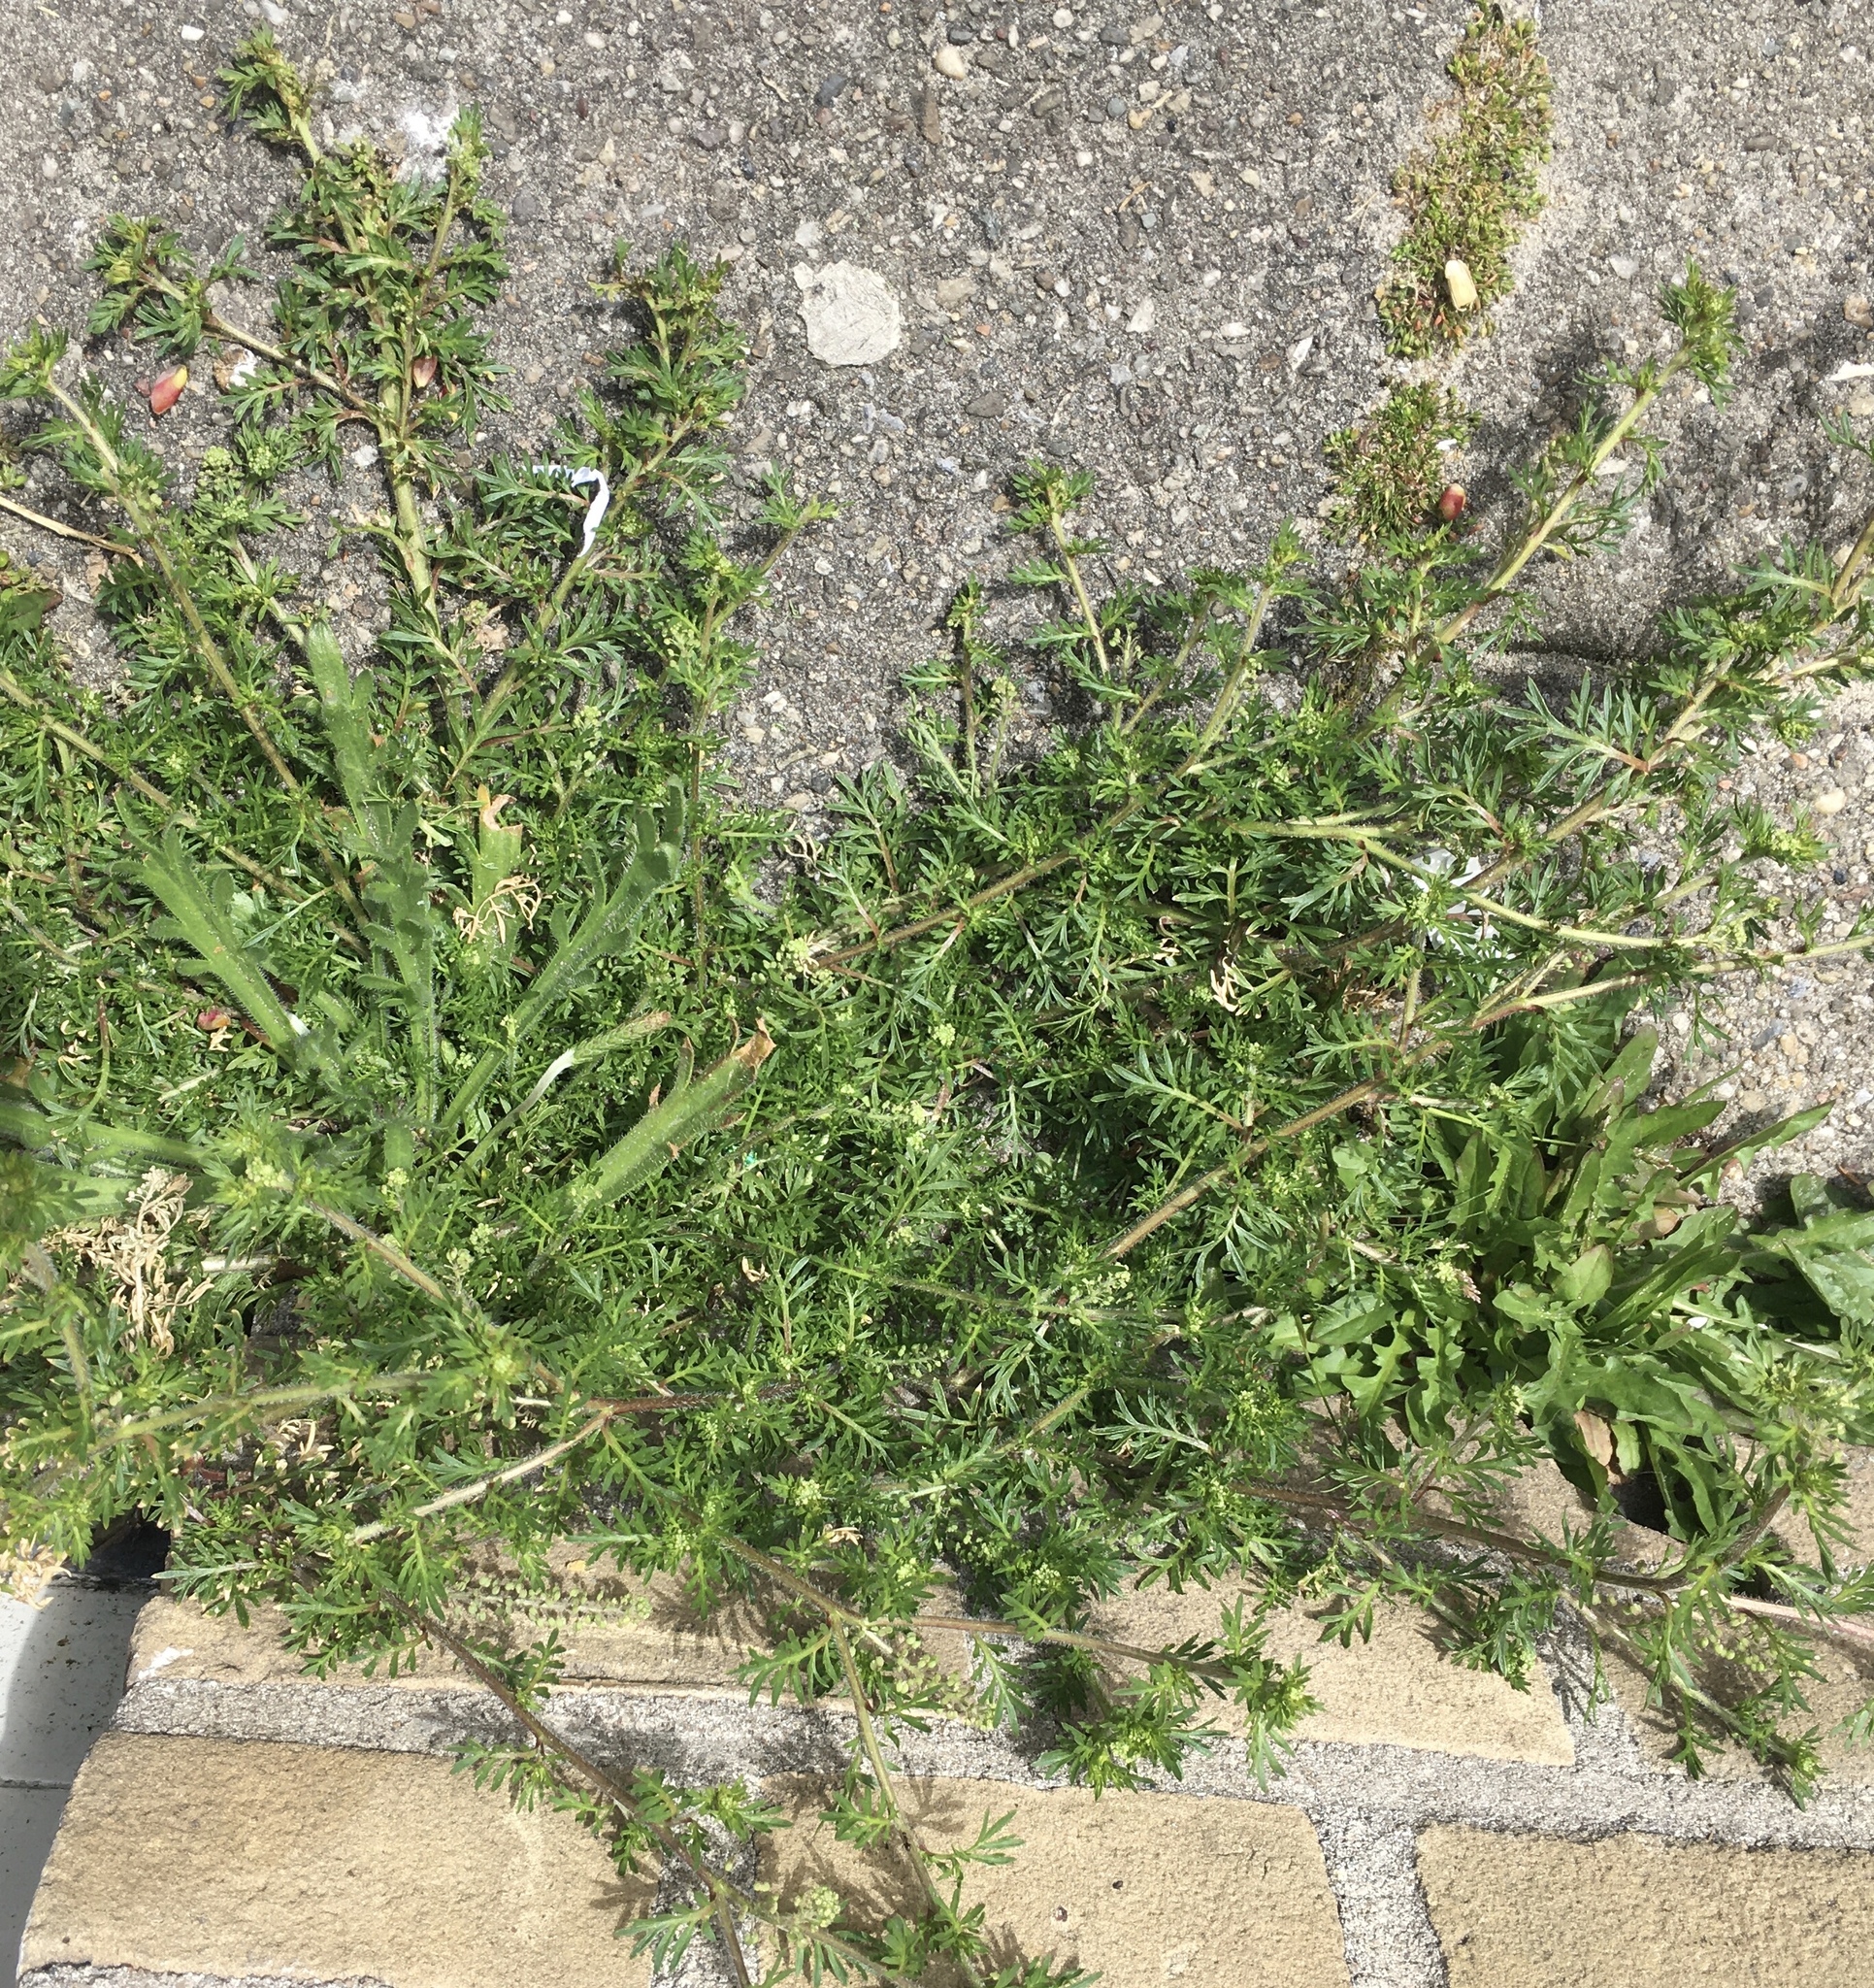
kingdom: Plantae
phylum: Tracheophyta
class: Magnoliopsida
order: Brassicales
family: Brassicaceae
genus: Lepidium
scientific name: Lepidium didymum
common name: Lesser swinecress
